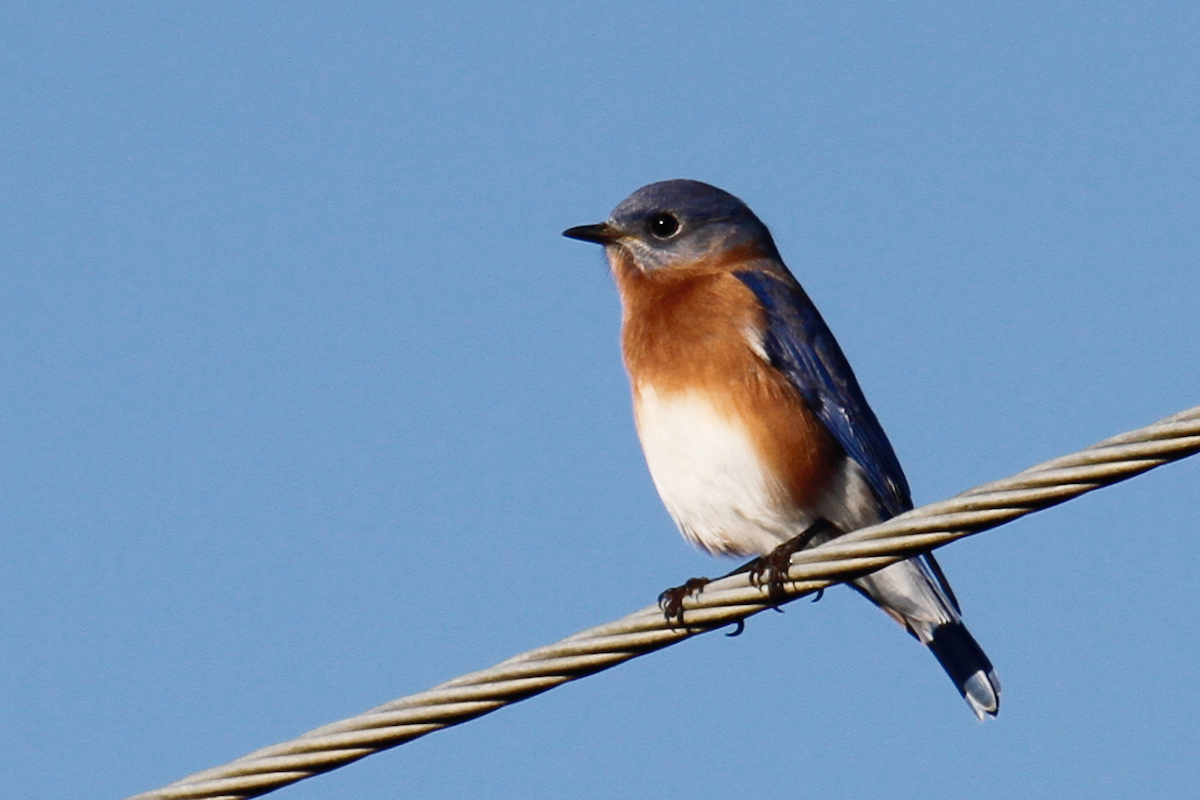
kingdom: Animalia
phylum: Chordata
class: Aves
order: Passeriformes
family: Turdidae
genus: Sialia
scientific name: Sialia sialis
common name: Eastern bluebird
